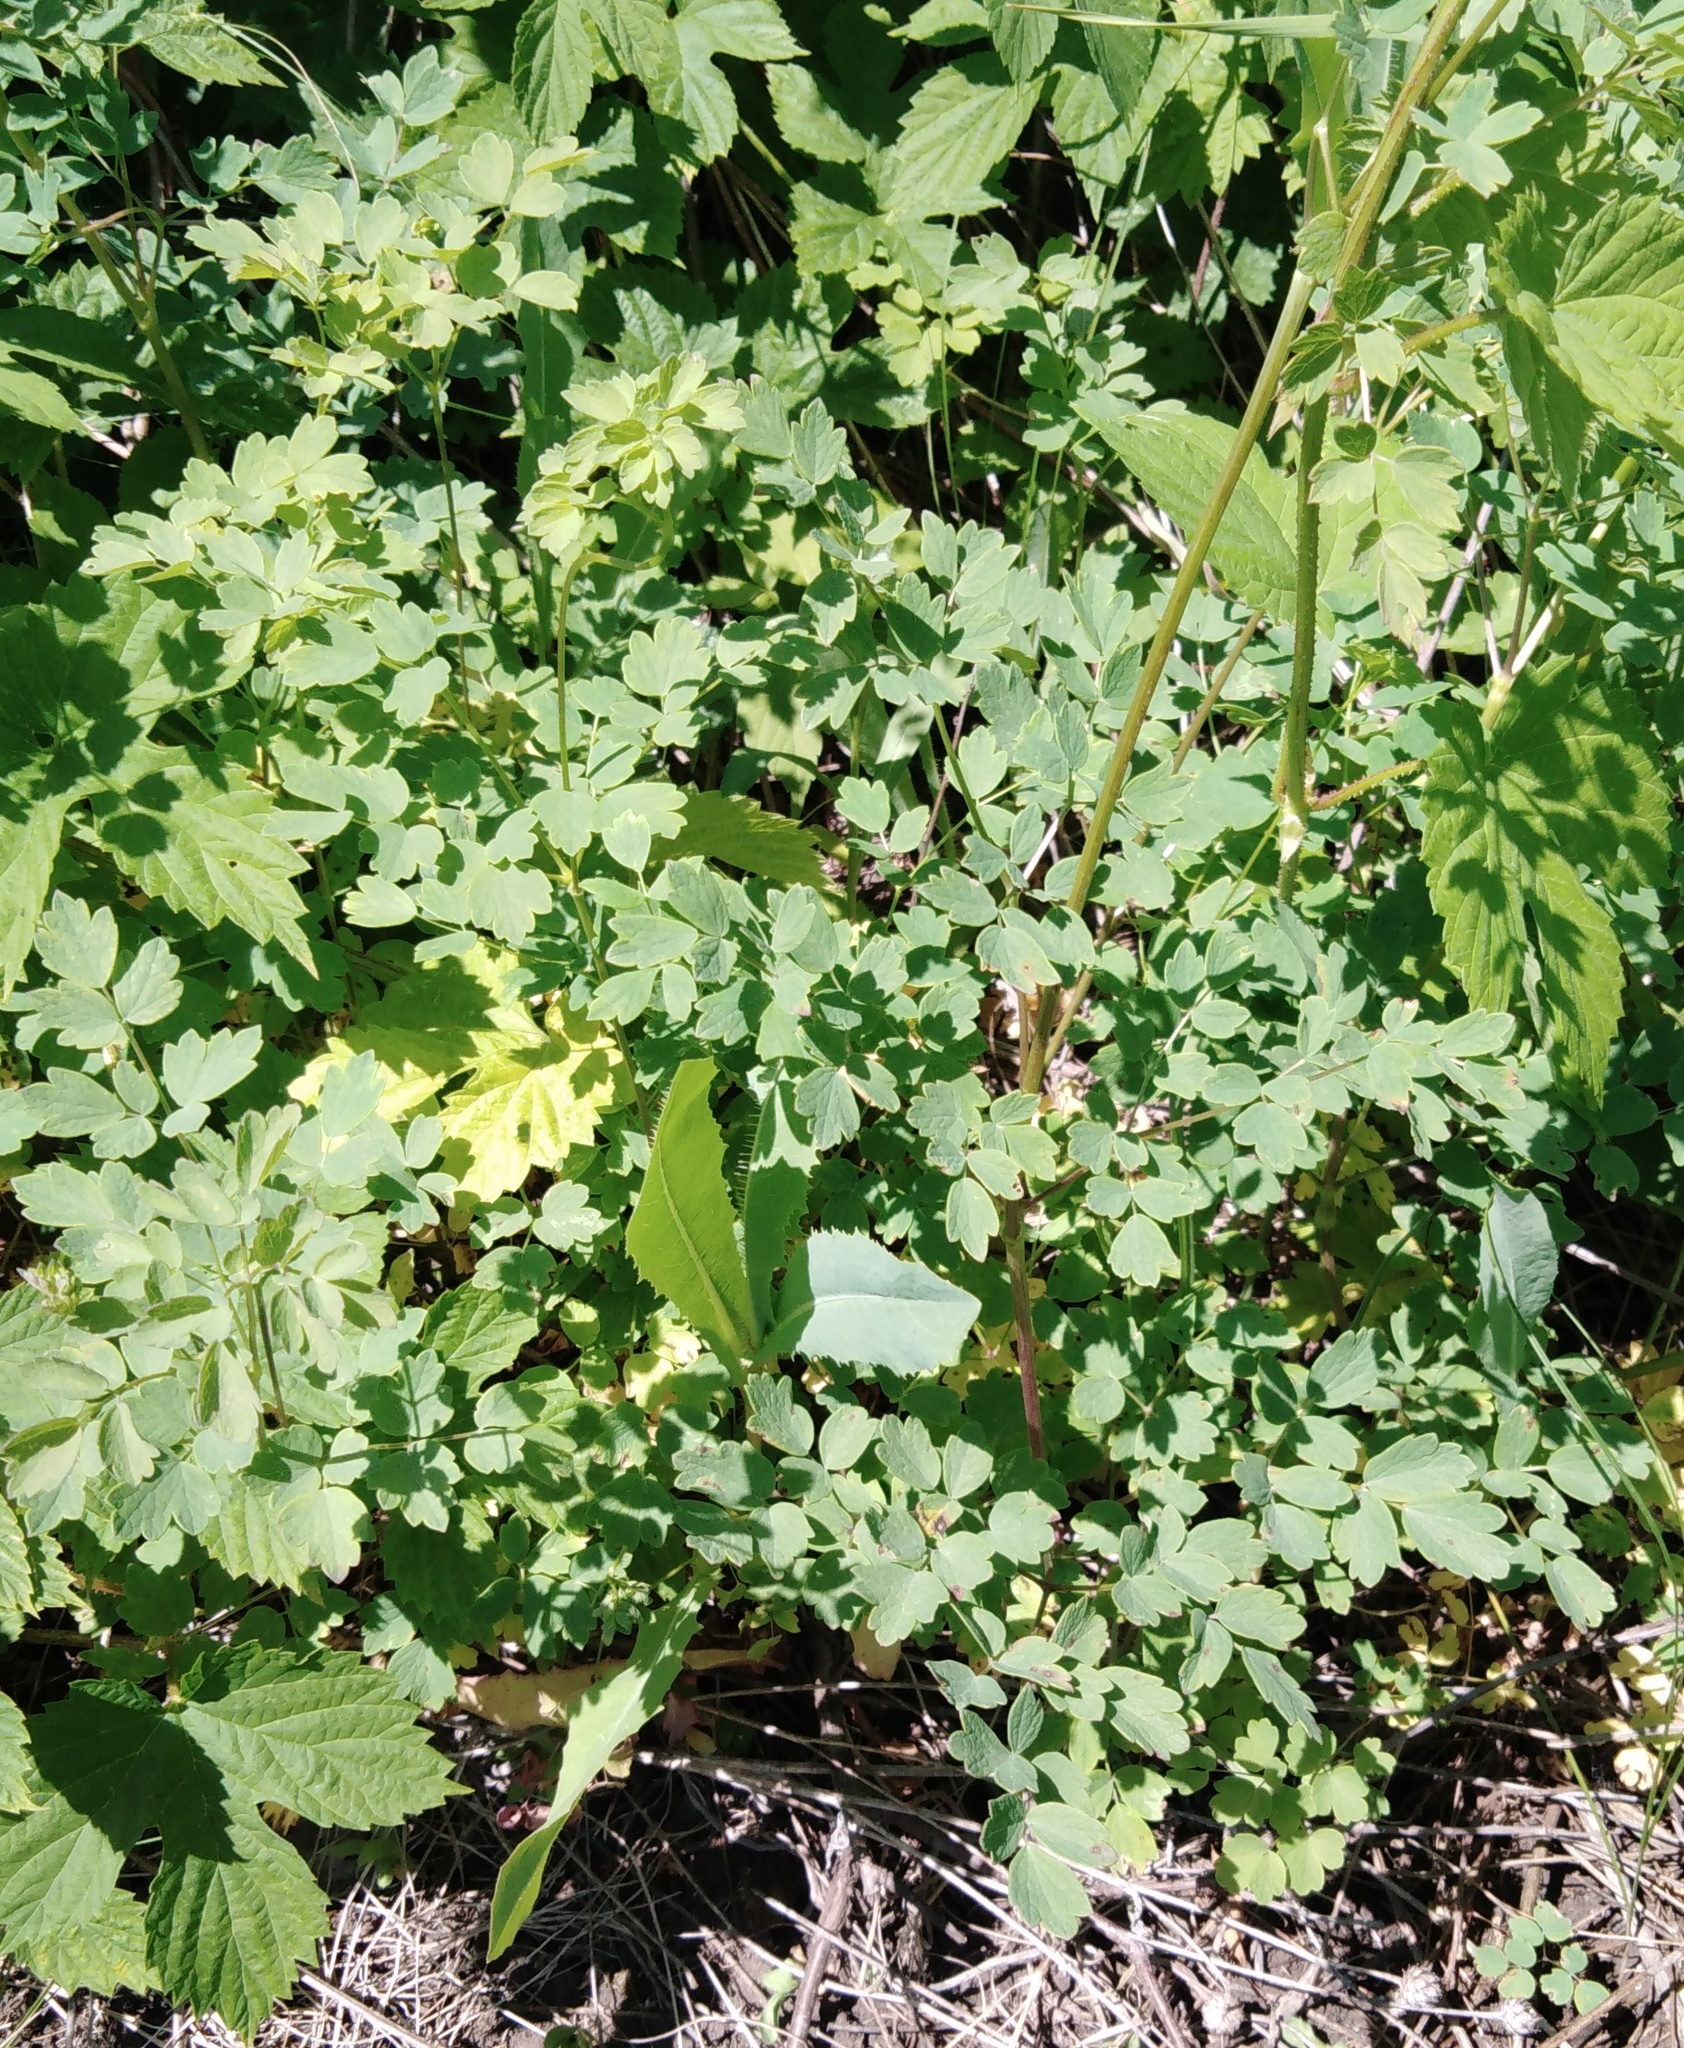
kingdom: Plantae
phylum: Tracheophyta
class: Magnoliopsida
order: Ranunculales
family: Ranunculaceae
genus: Thalictrum
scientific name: Thalictrum minus
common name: Lesser meadow-rue
